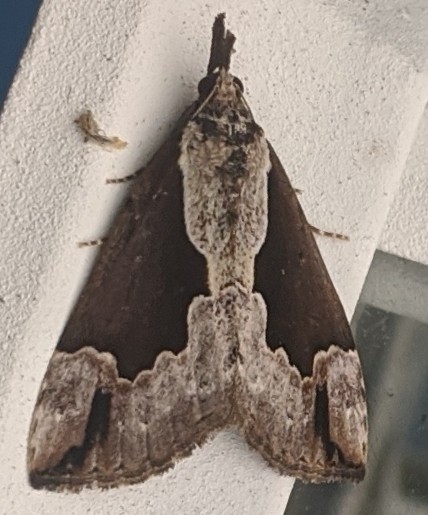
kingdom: Animalia
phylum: Arthropoda
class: Insecta
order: Lepidoptera
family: Erebidae
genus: Hypena
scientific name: Hypena baltimoralis
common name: Baltimore snout
